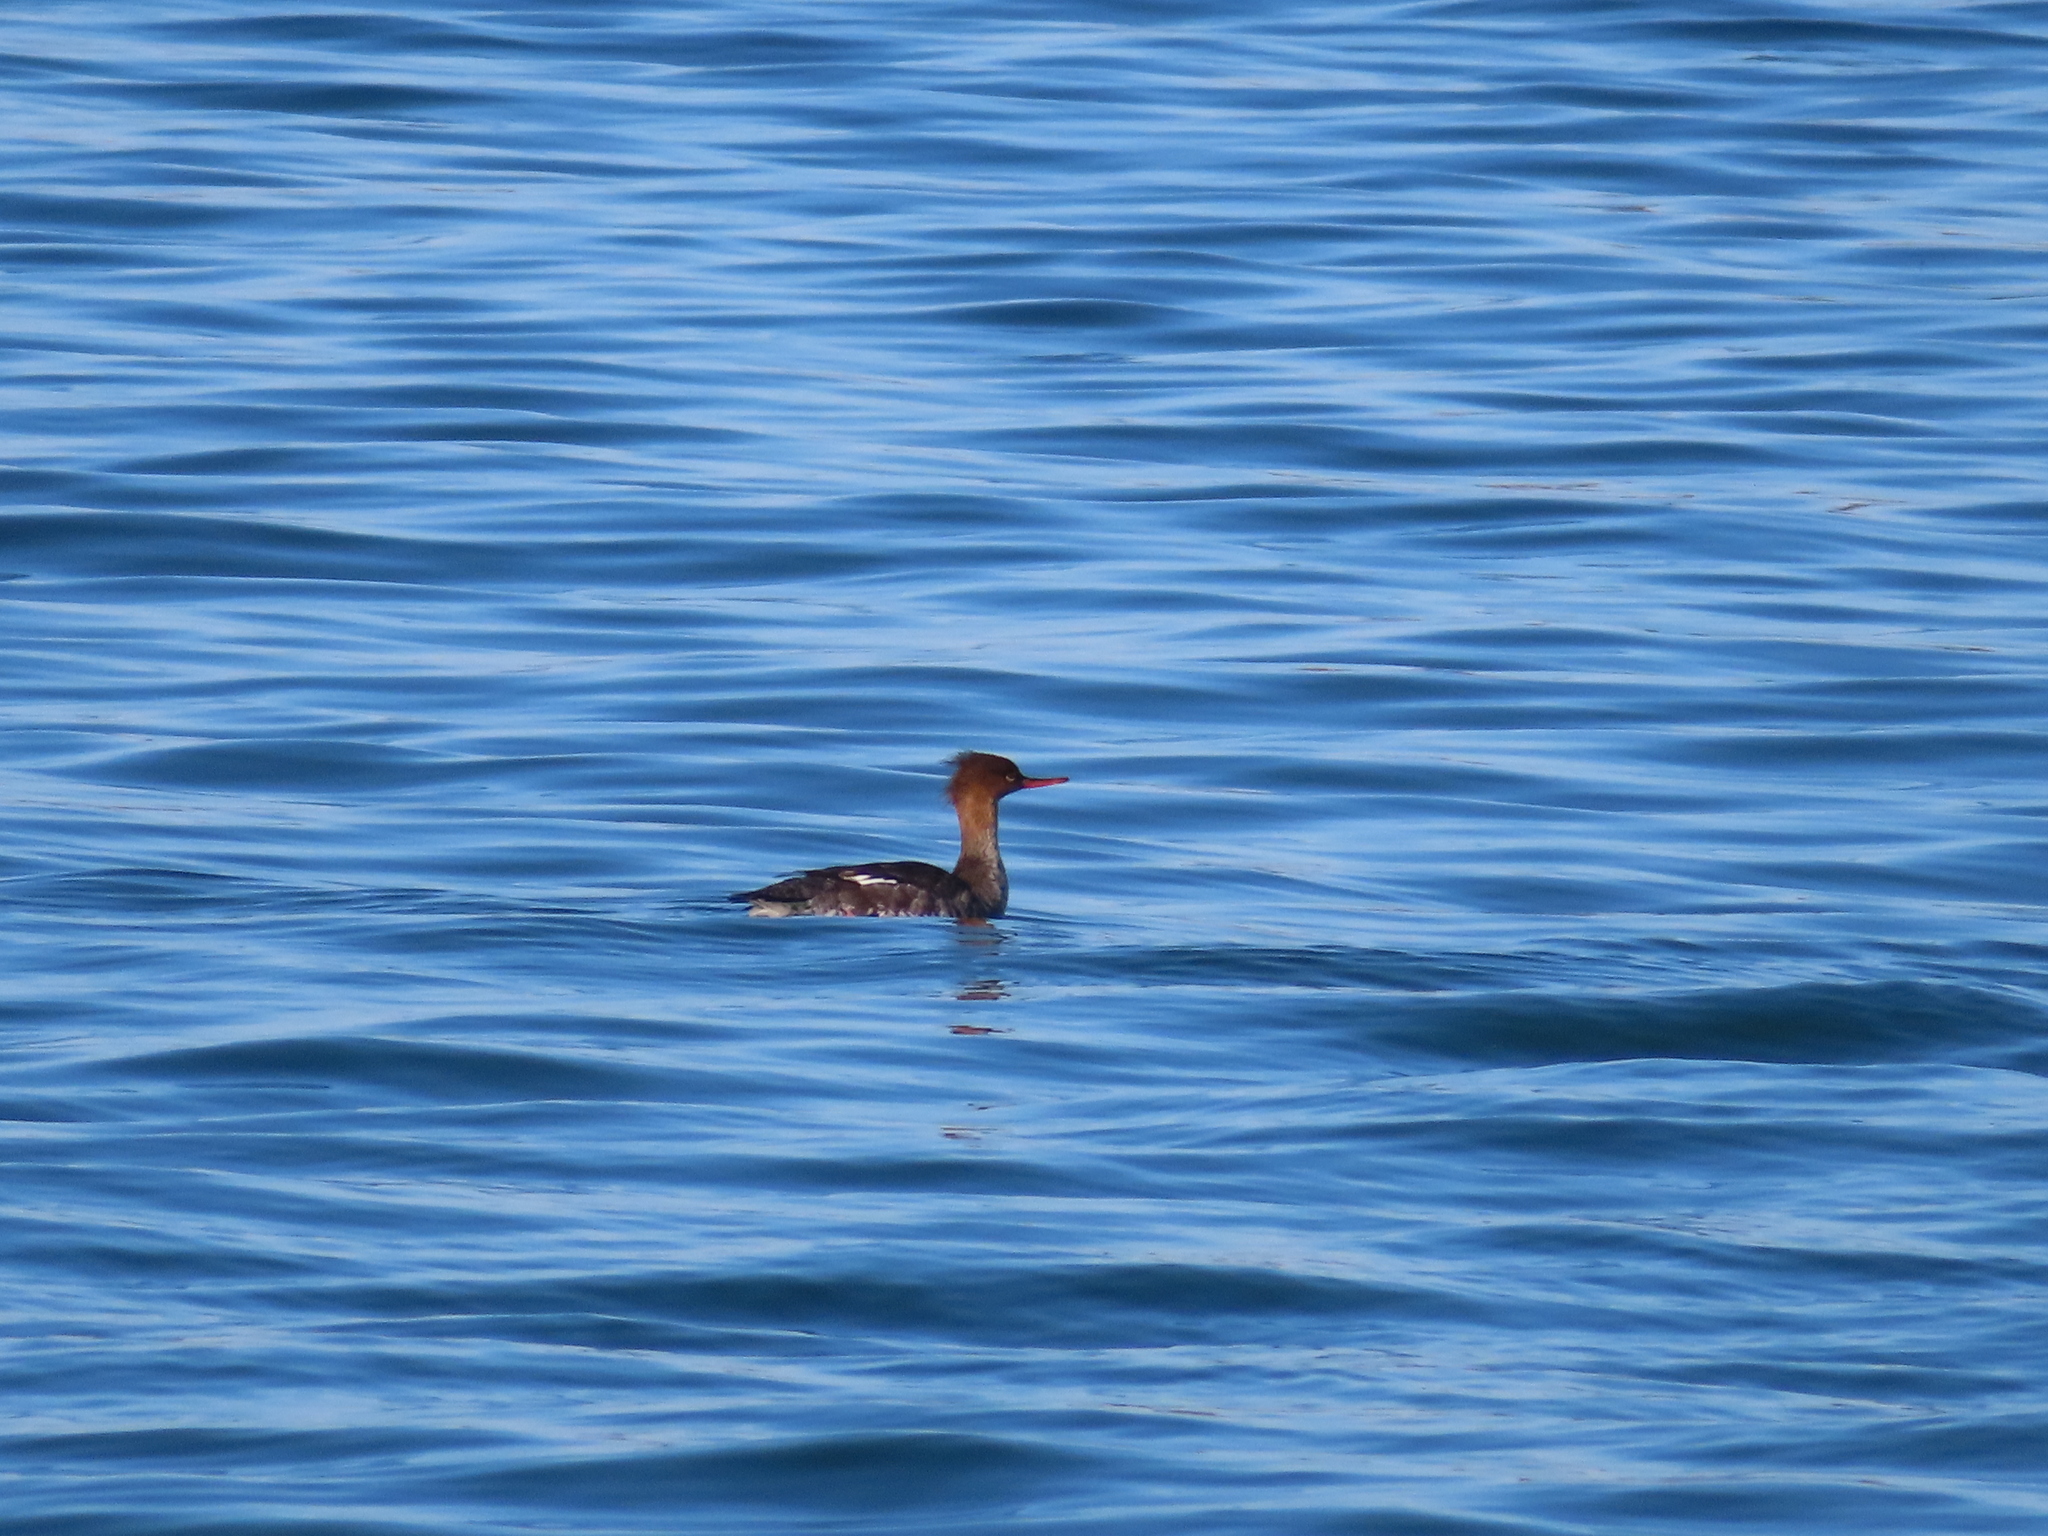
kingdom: Animalia
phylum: Chordata
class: Aves
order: Anseriformes
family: Anatidae
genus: Mergus
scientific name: Mergus serrator
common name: Red-breasted merganser
